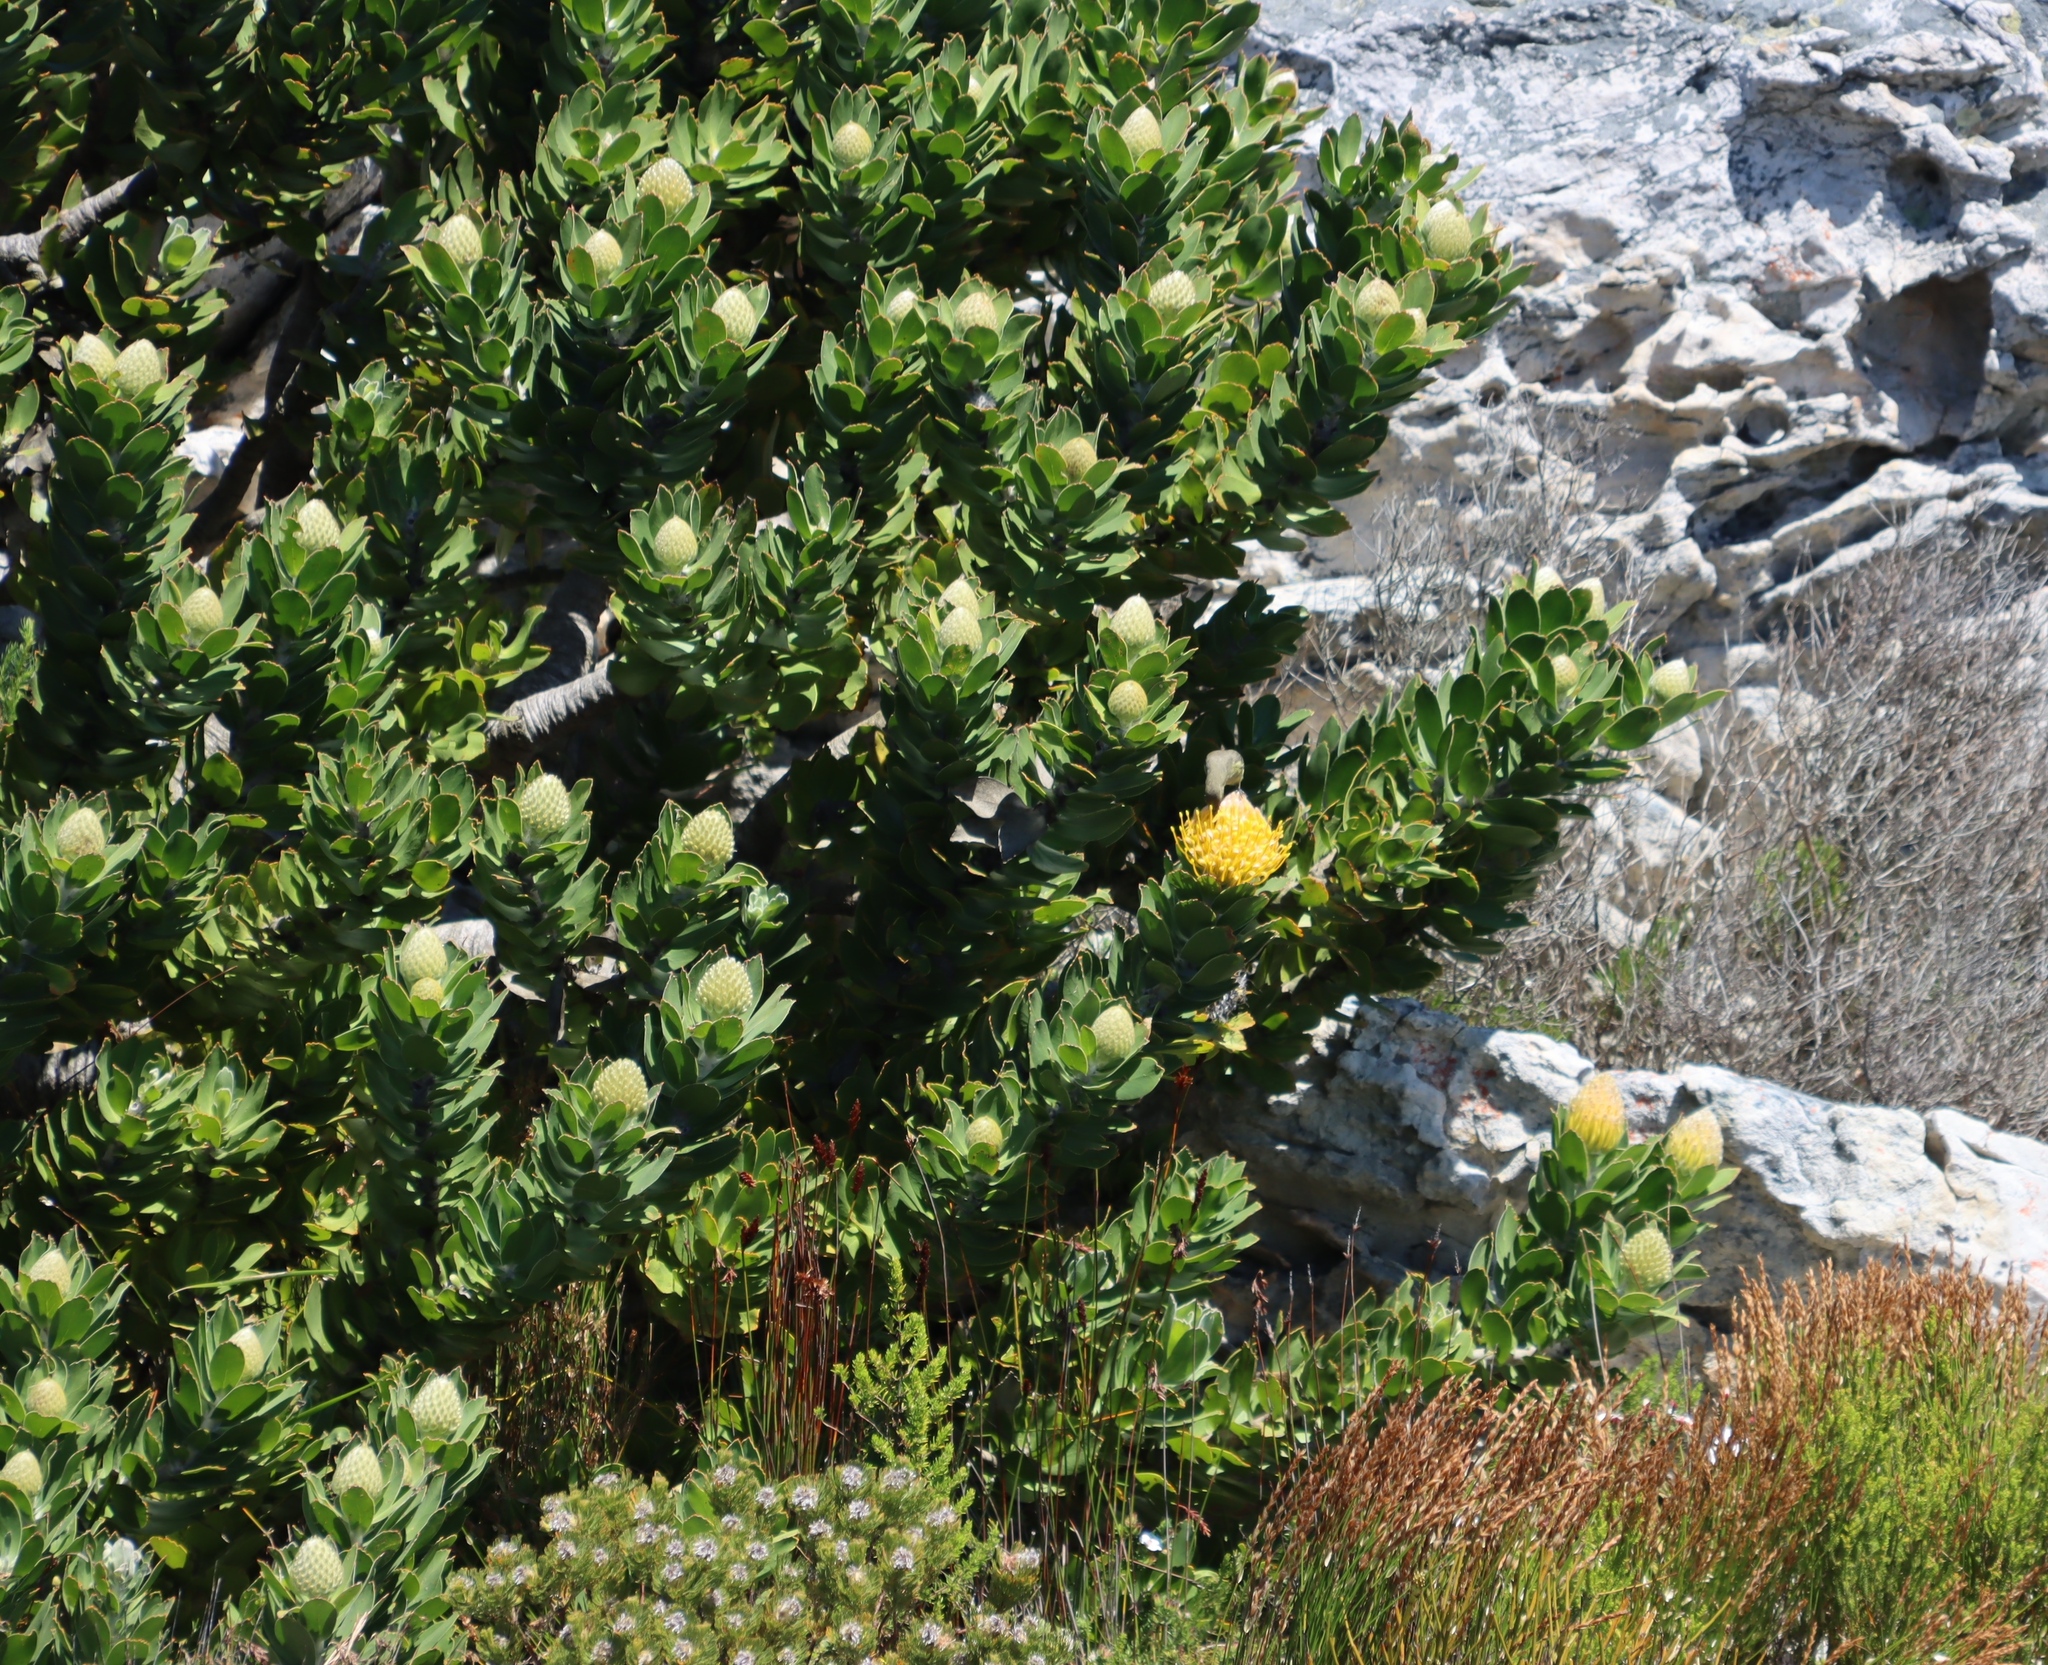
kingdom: Plantae
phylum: Tracheophyta
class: Magnoliopsida
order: Proteales
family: Proteaceae
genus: Leucospermum
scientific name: Leucospermum conocarpodendron
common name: Tree pincushion
